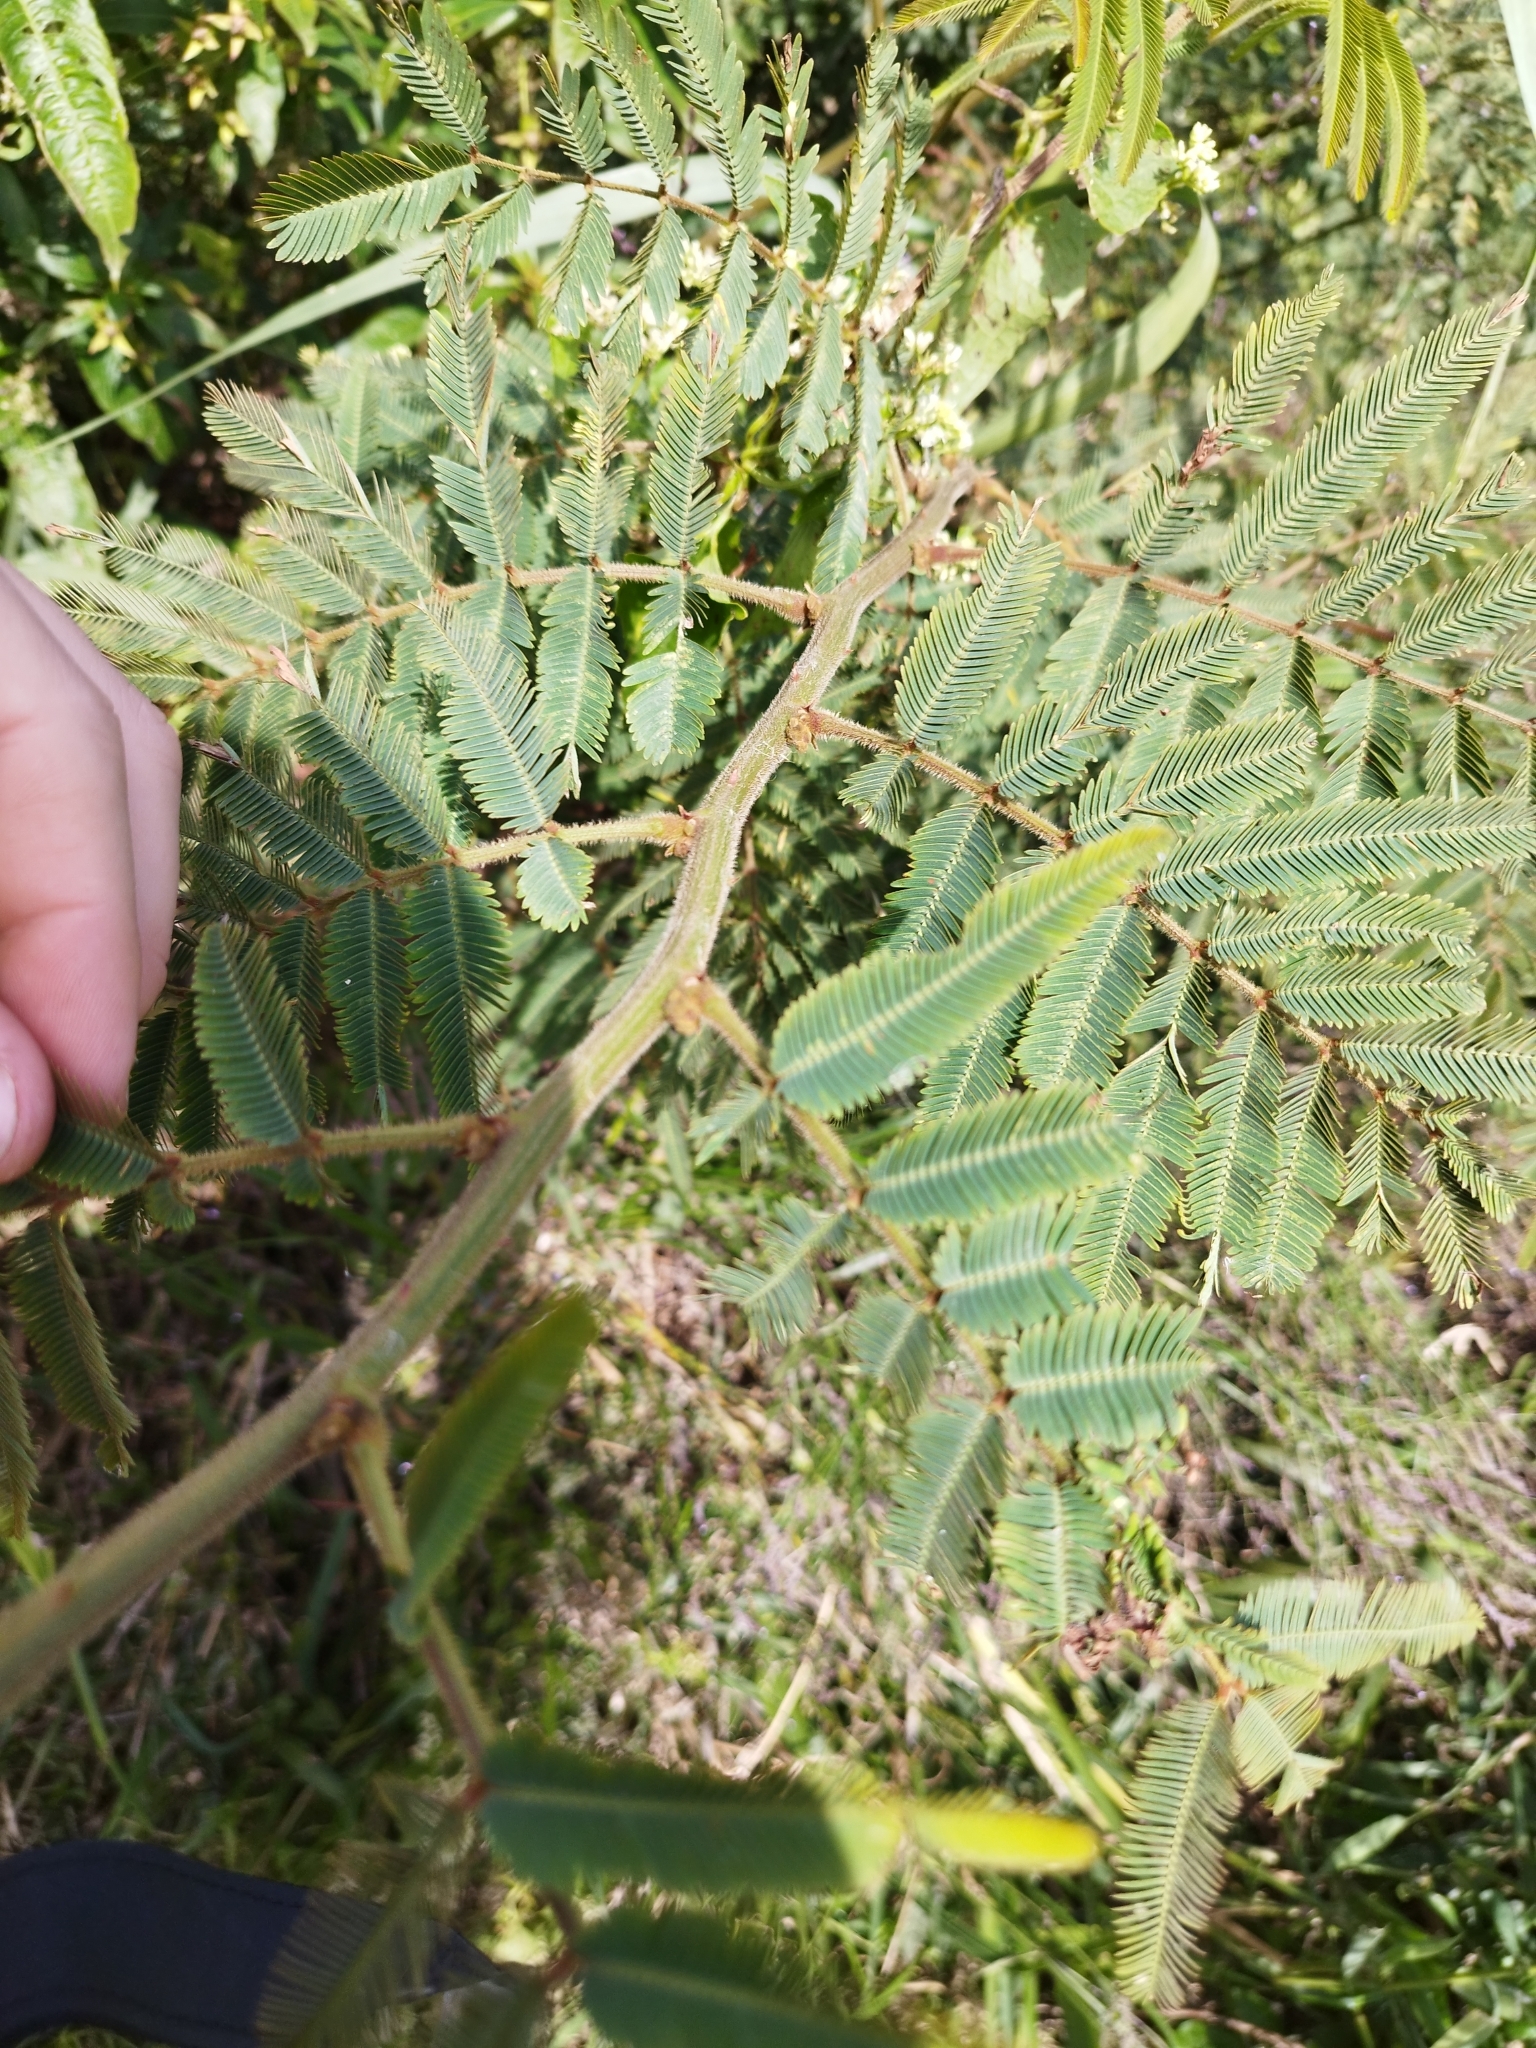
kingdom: Plantae
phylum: Tracheophyta
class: Magnoliopsida
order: Fabales
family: Fabaceae
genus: Mimosa
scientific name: Mimosa pigra
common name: Black mimosa
